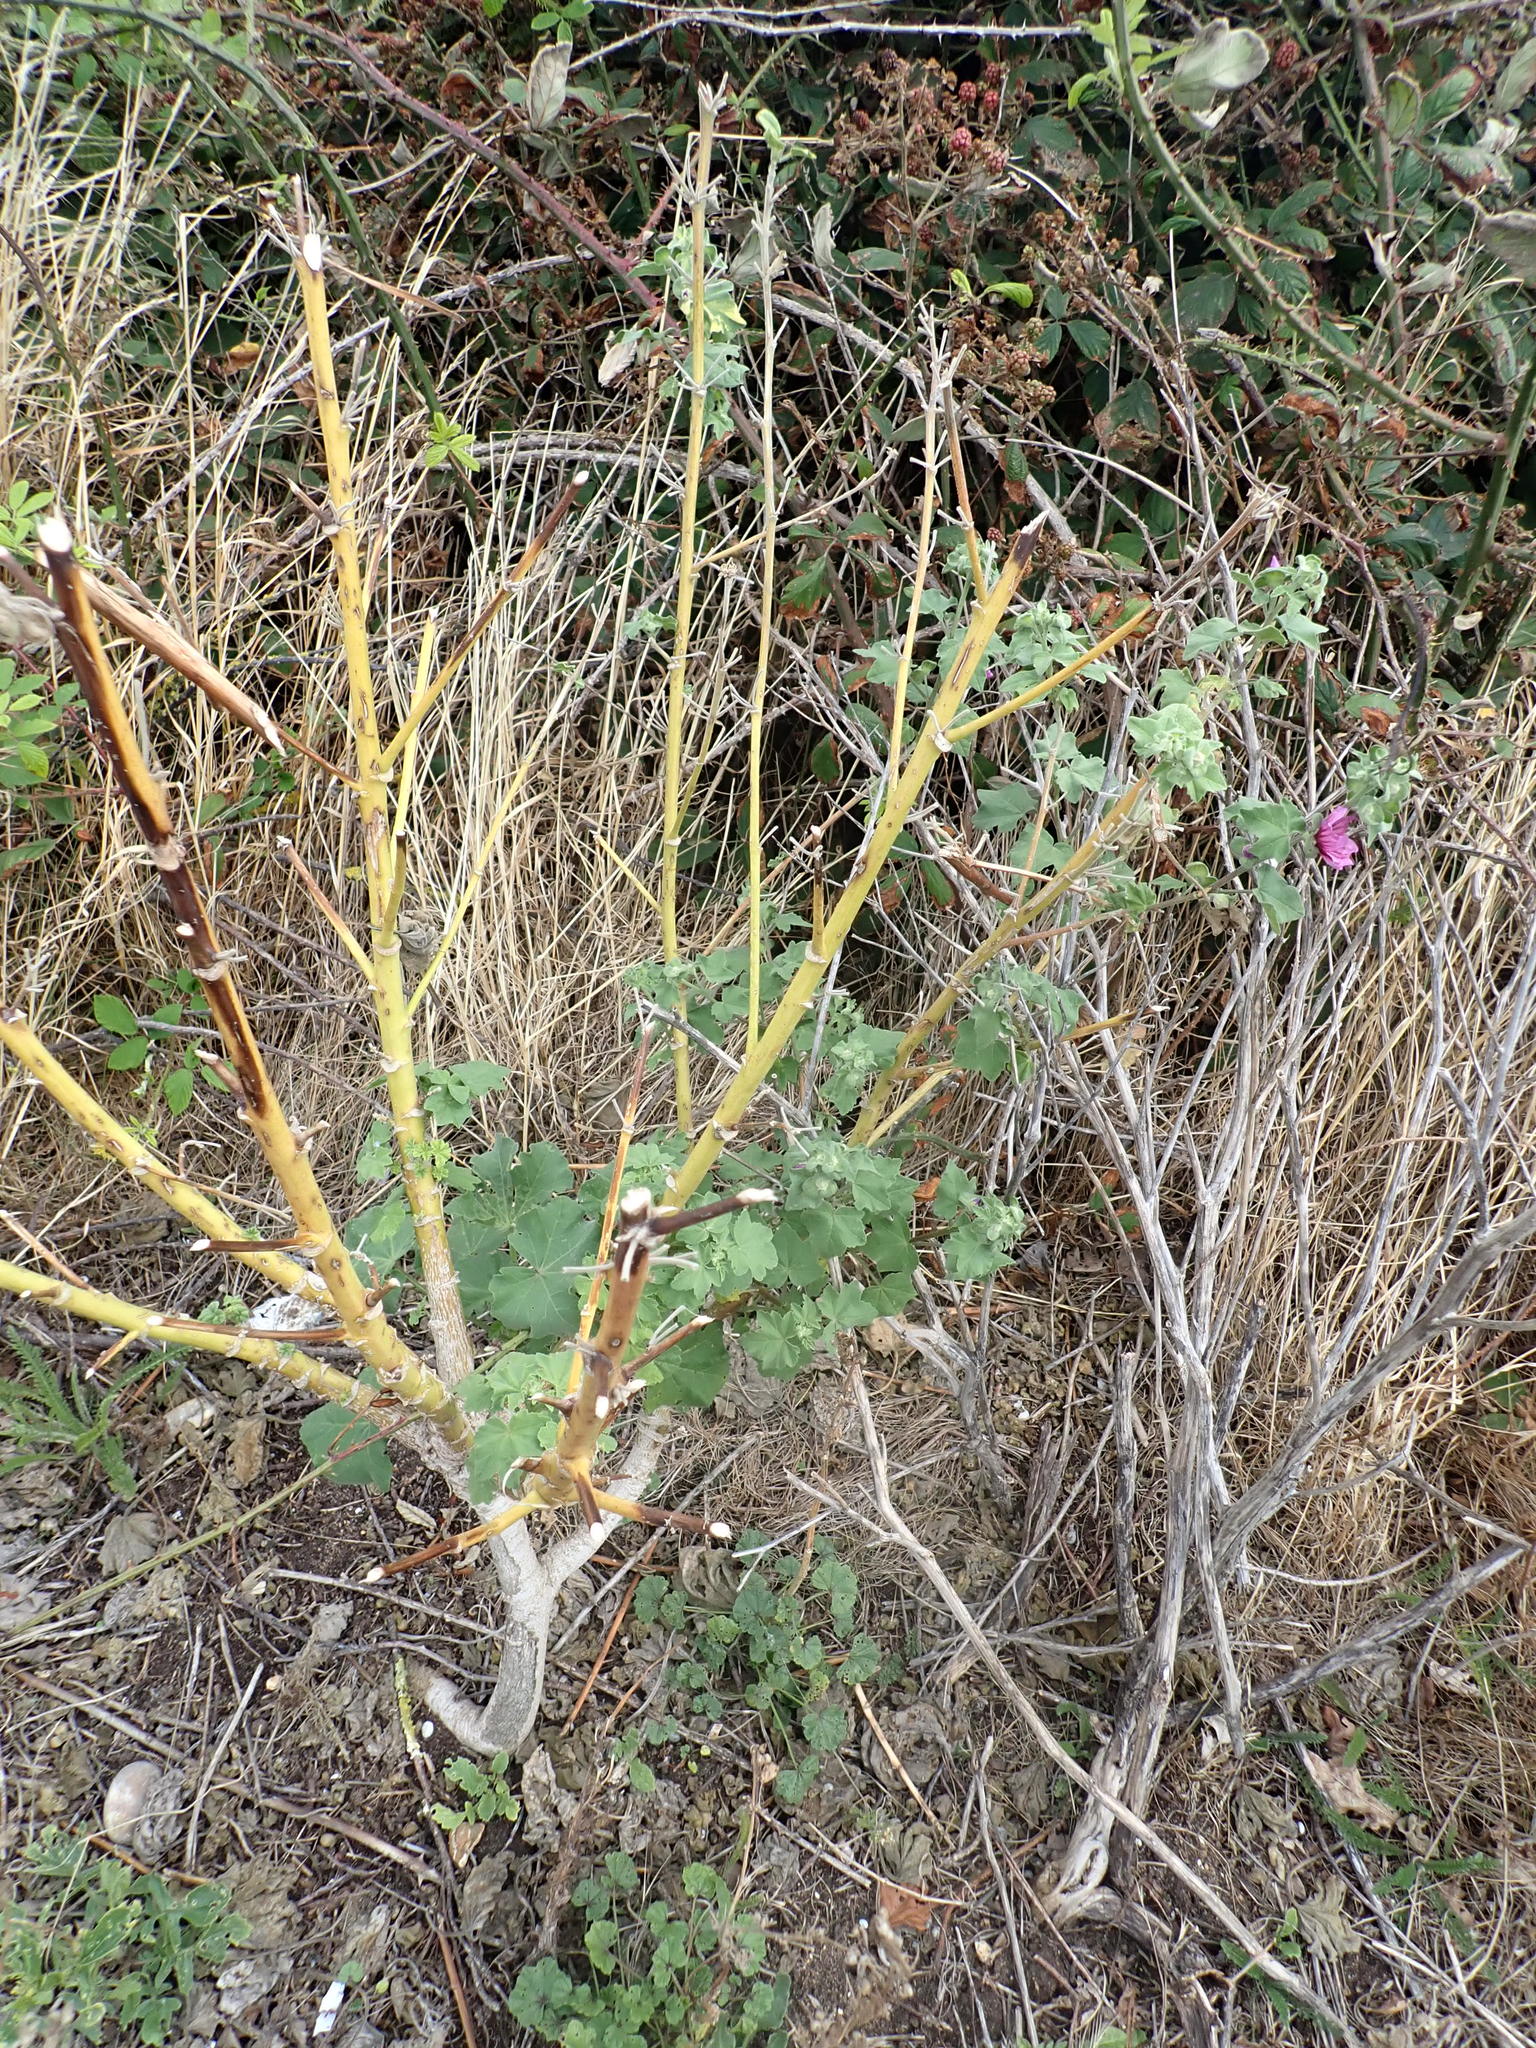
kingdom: Plantae
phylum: Tracheophyta
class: Magnoliopsida
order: Malvales
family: Malvaceae
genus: Malva
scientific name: Malva arborea
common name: Tree mallow
